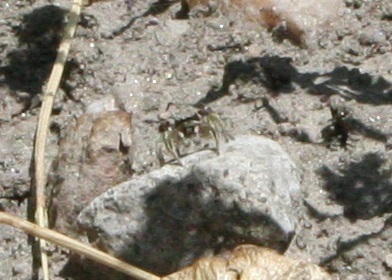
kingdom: Animalia
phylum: Arthropoda
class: Arachnida
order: Araneae
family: Salticidae
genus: Habronattus
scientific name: Habronattus festus
